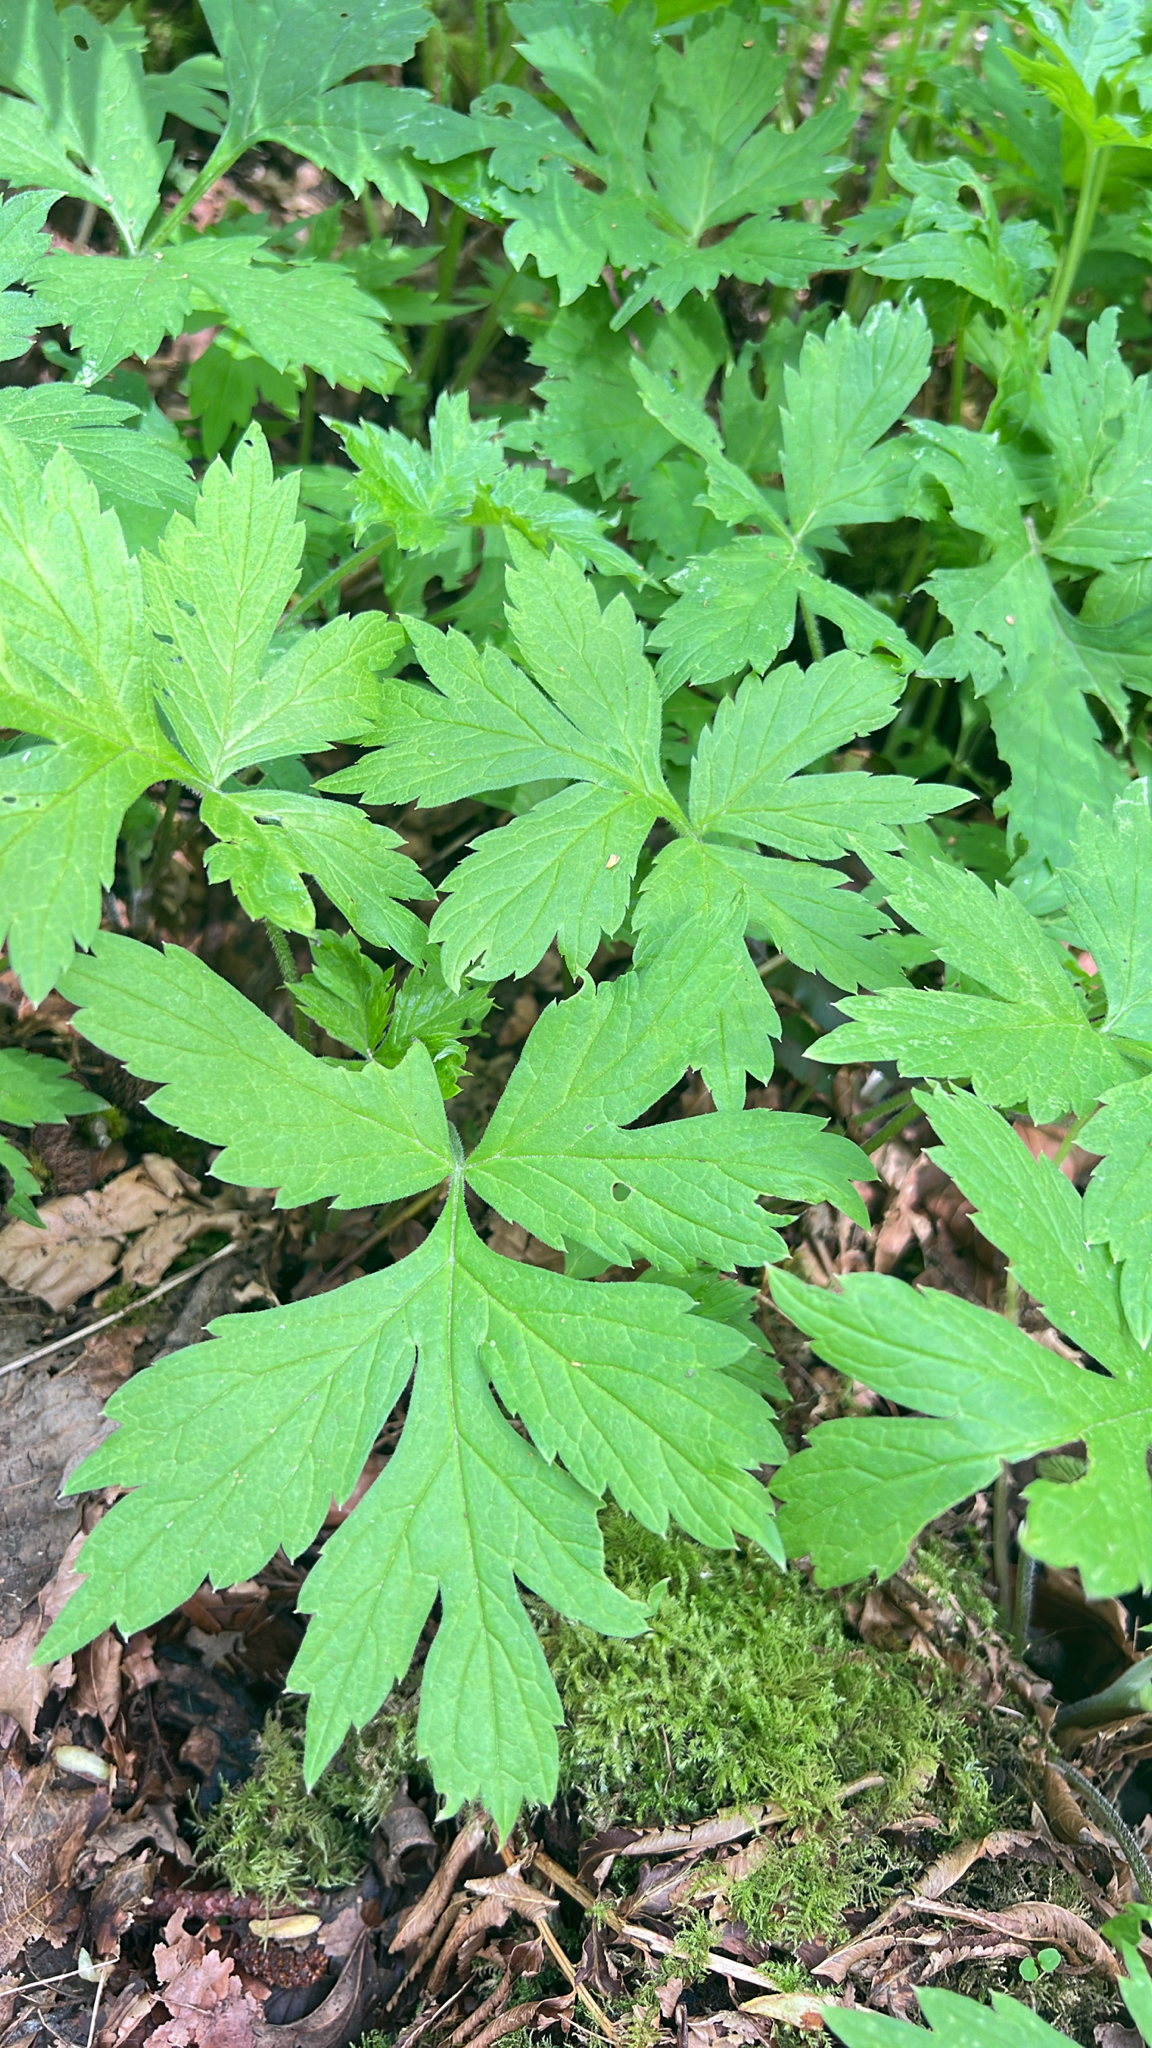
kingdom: Plantae
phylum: Tracheophyta
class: Magnoliopsida
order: Boraginales
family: Hydrophyllaceae
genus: Hydrophyllum
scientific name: Hydrophyllum tenuipes
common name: Pacific waterleaf
